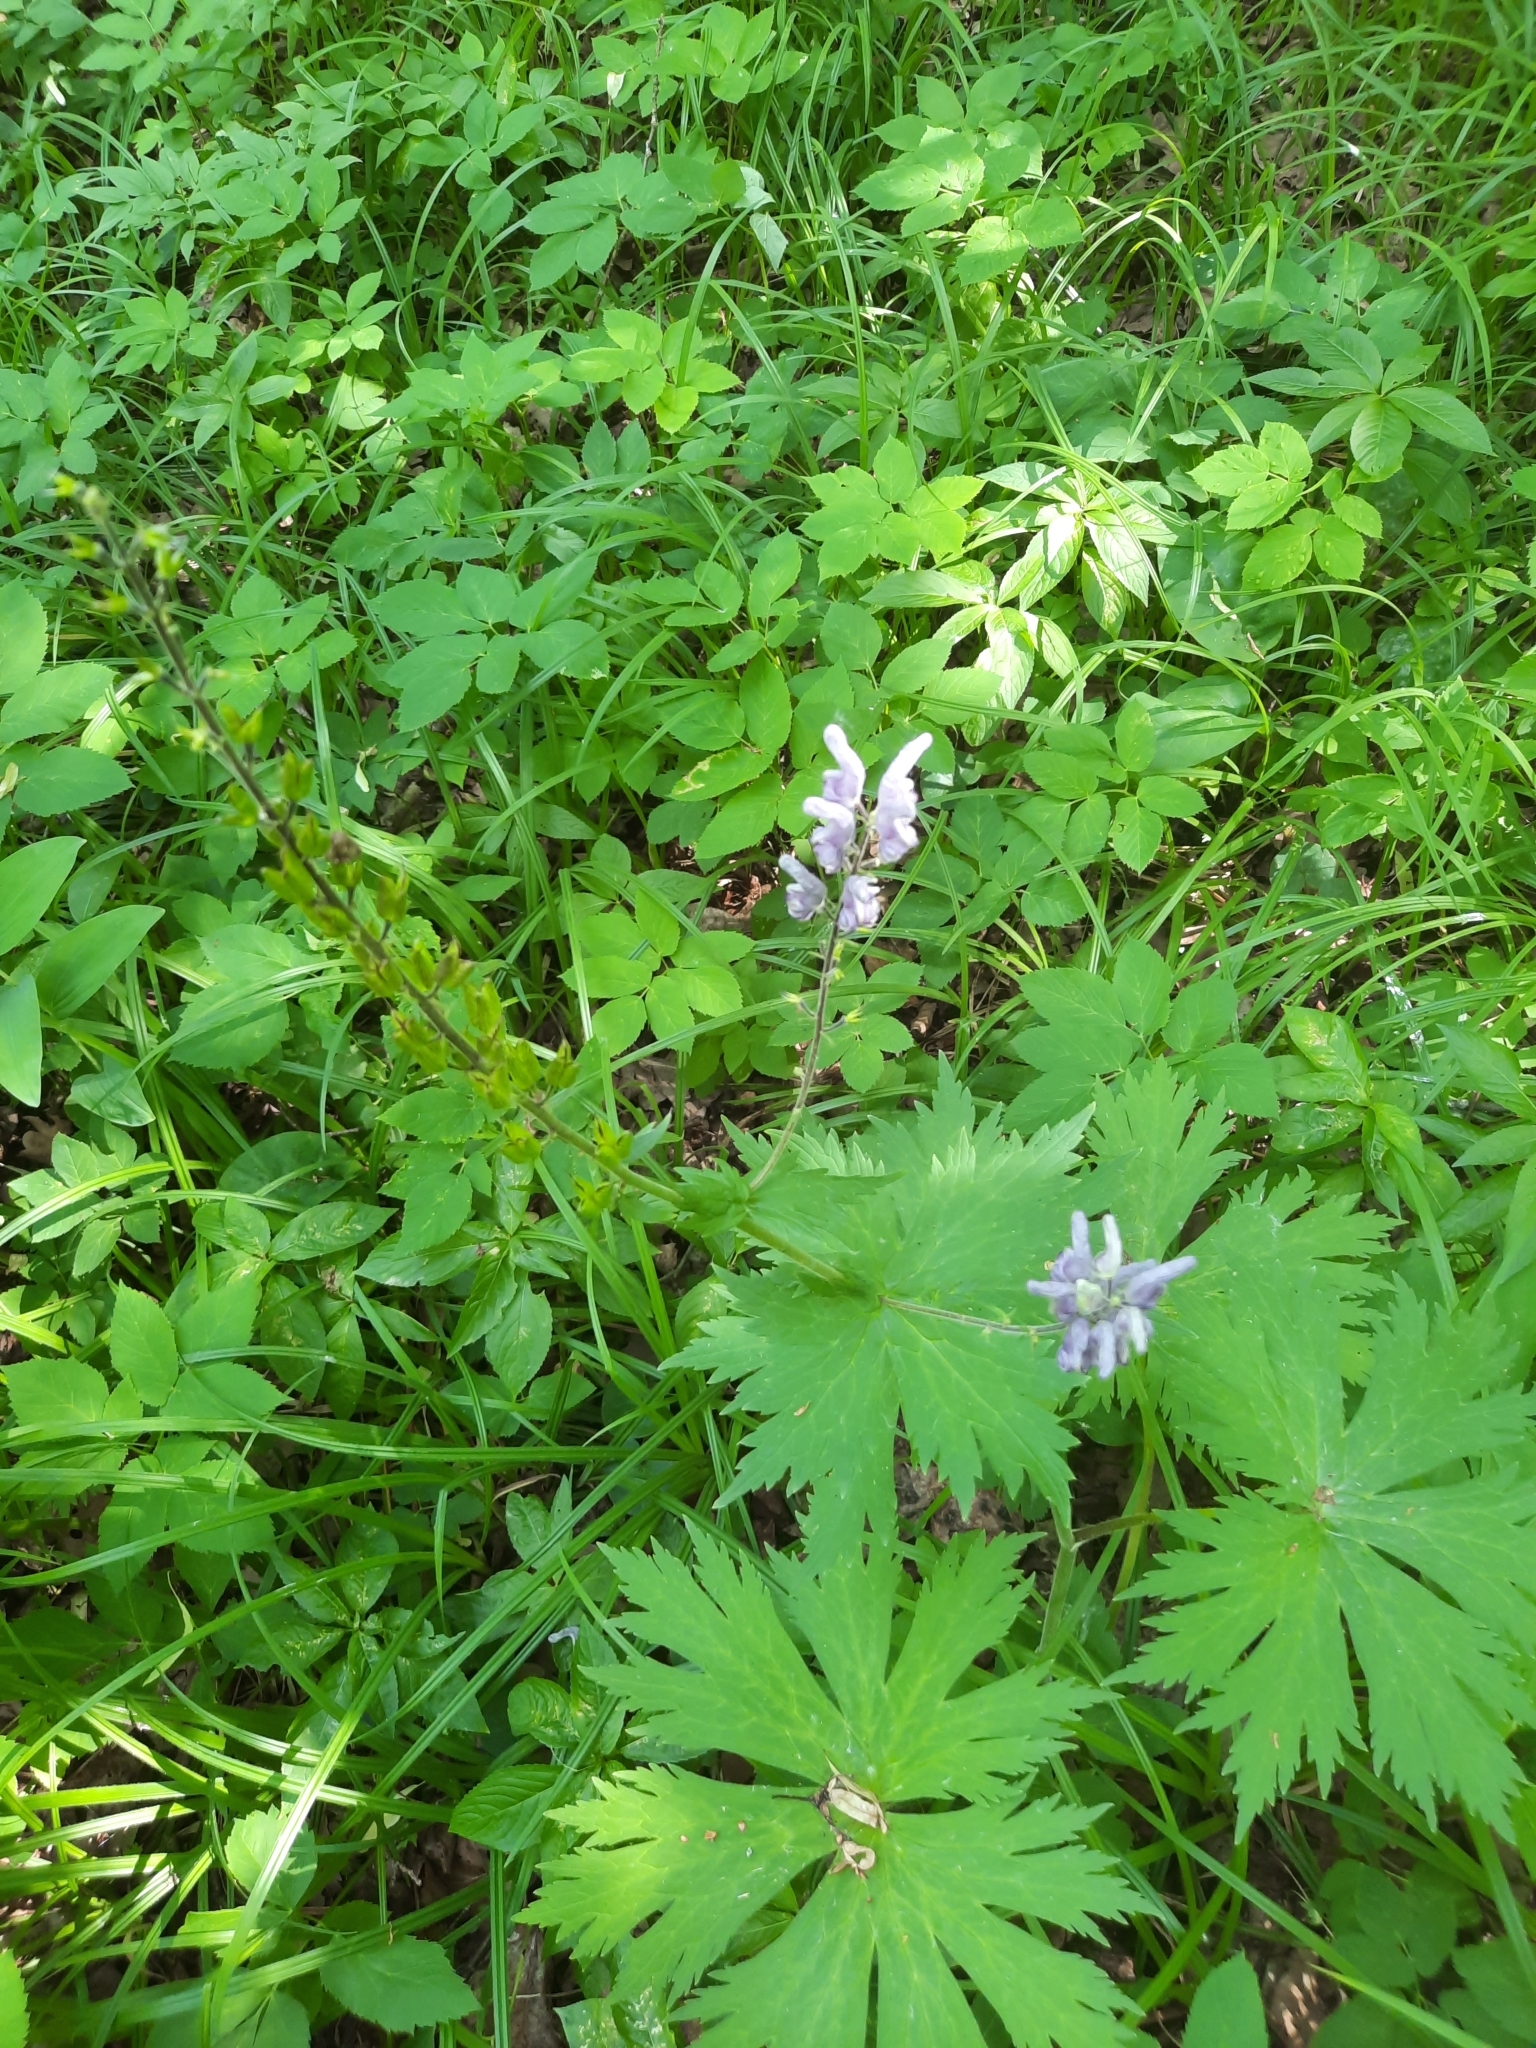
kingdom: Plantae
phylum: Tracheophyta
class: Magnoliopsida
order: Ranunculales
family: Ranunculaceae
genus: Aconitum
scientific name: Aconitum septentrionale
